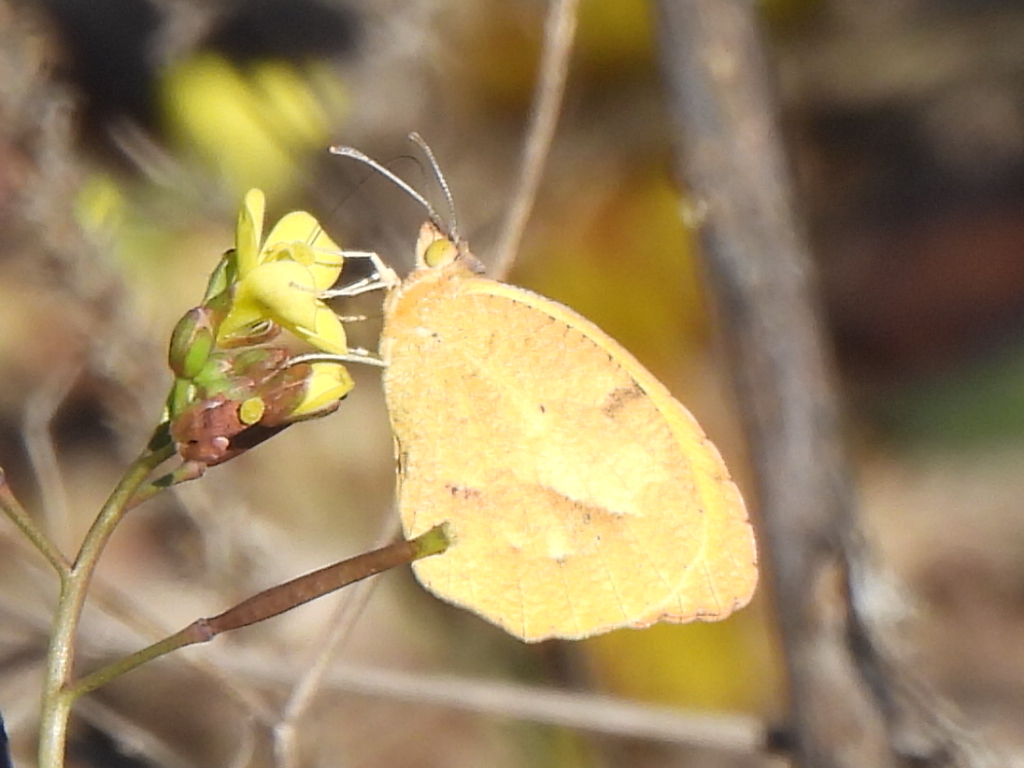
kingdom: Animalia
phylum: Arthropoda
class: Insecta
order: Lepidoptera
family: Pieridae
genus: Abaeis
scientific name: Abaeis nicippe
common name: Sleepy orange
